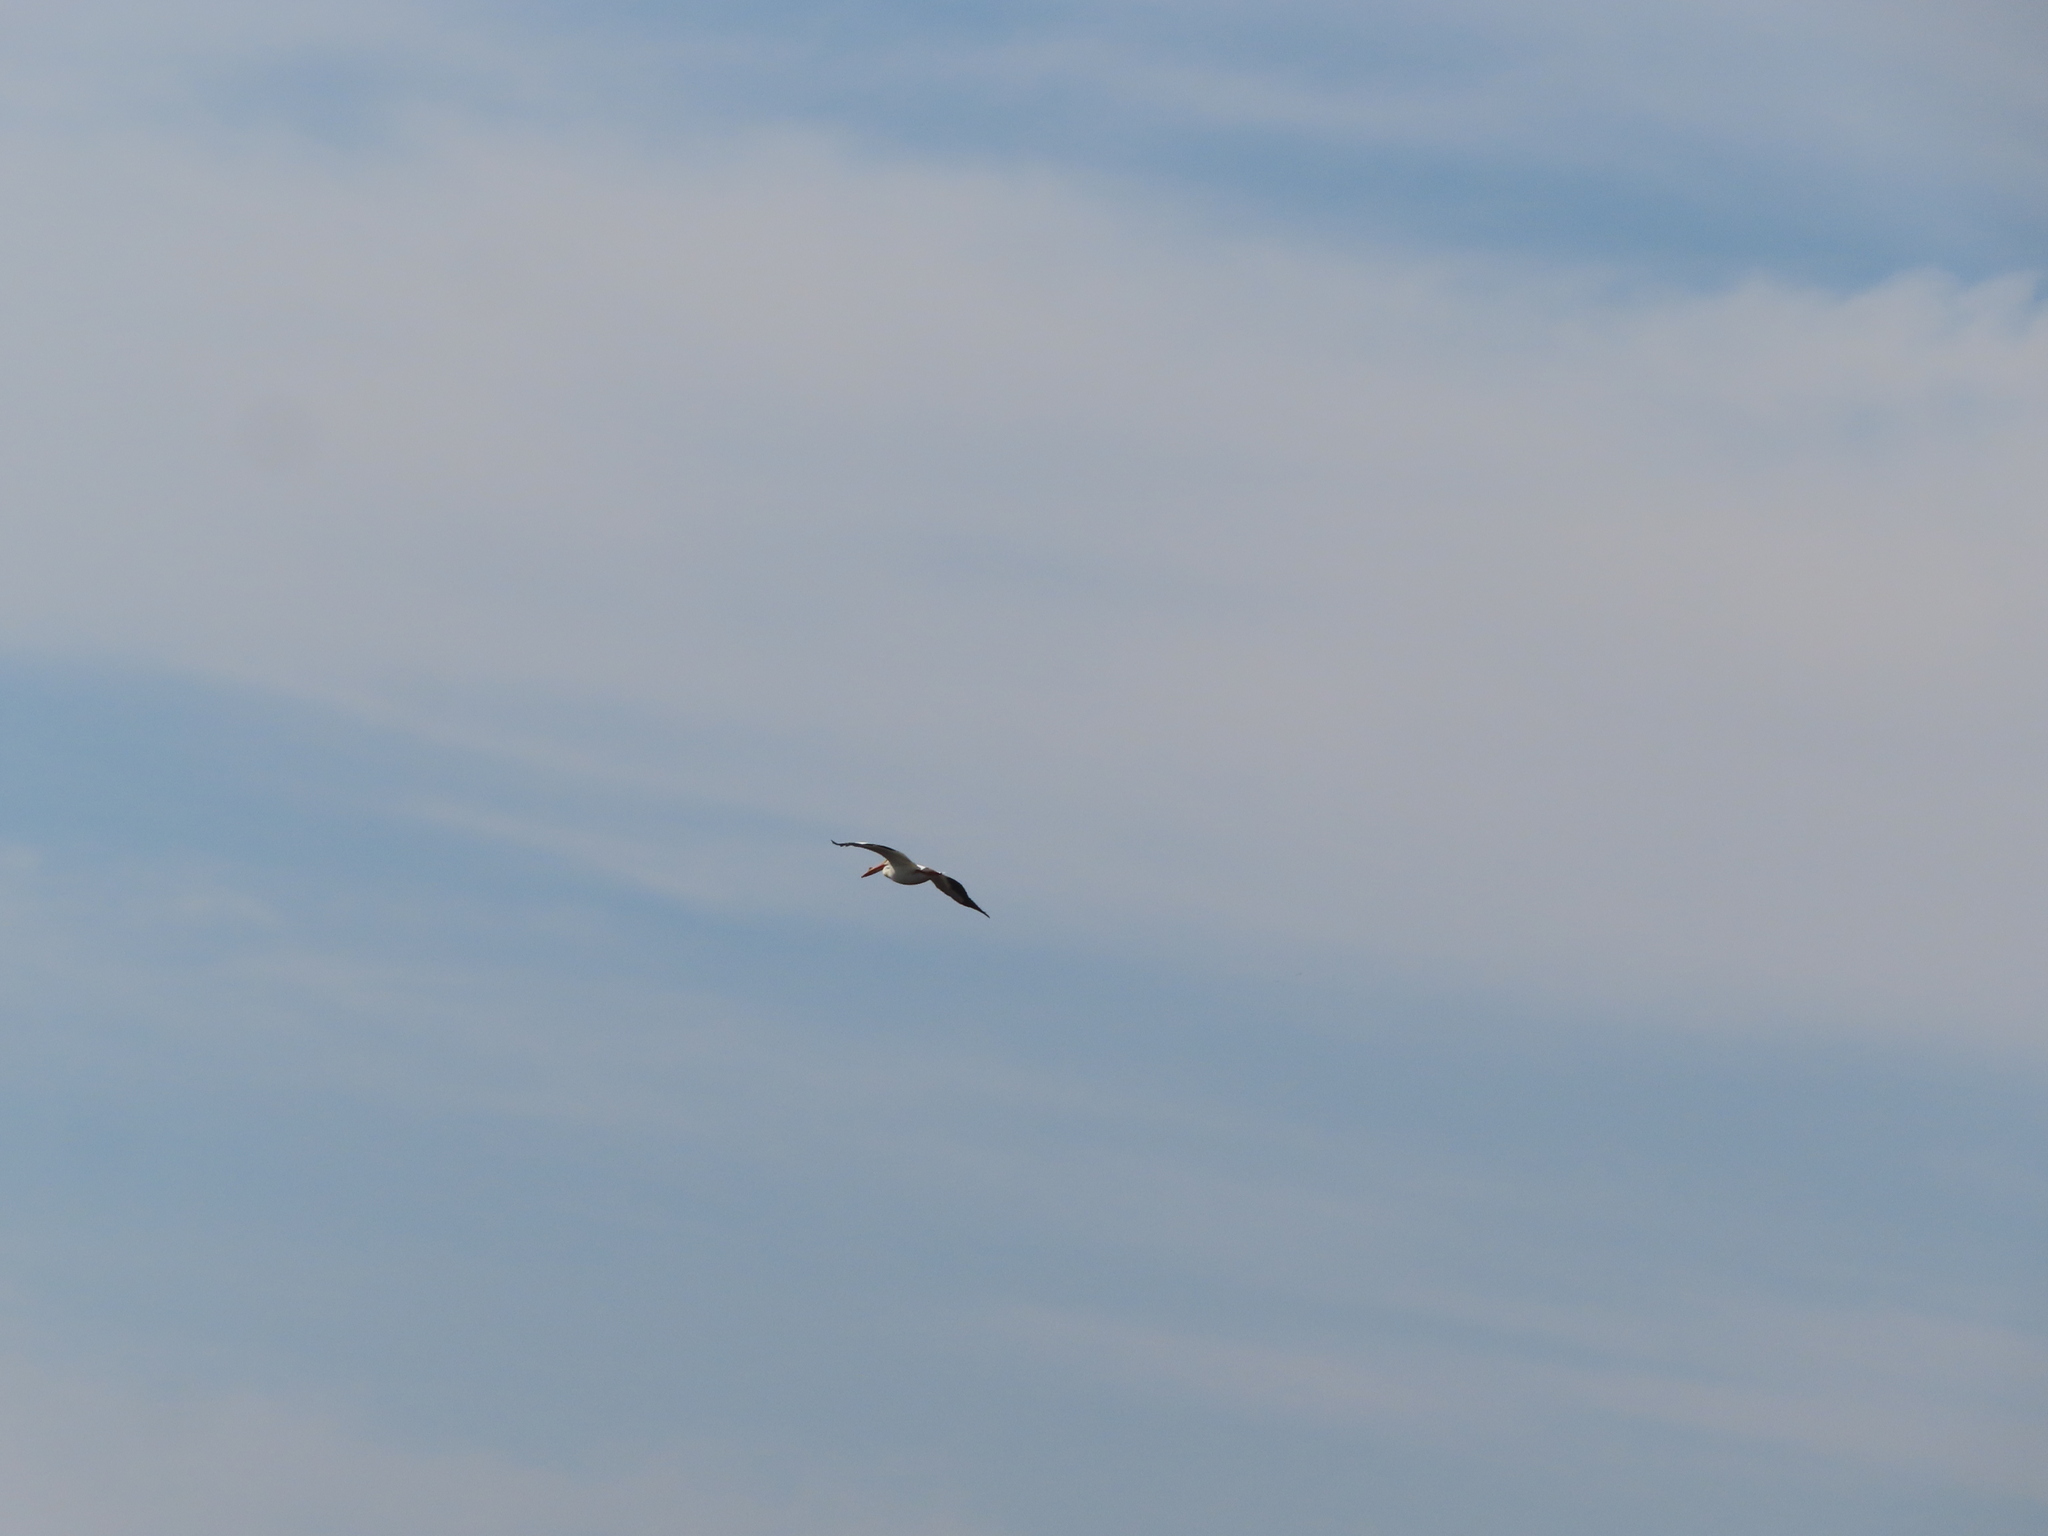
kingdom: Animalia
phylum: Chordata
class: Aves
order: Pelecaniformes
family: Pelecanidae
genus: Pelecanus
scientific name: Pelecanus erythrorhynchos
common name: American white pelican
